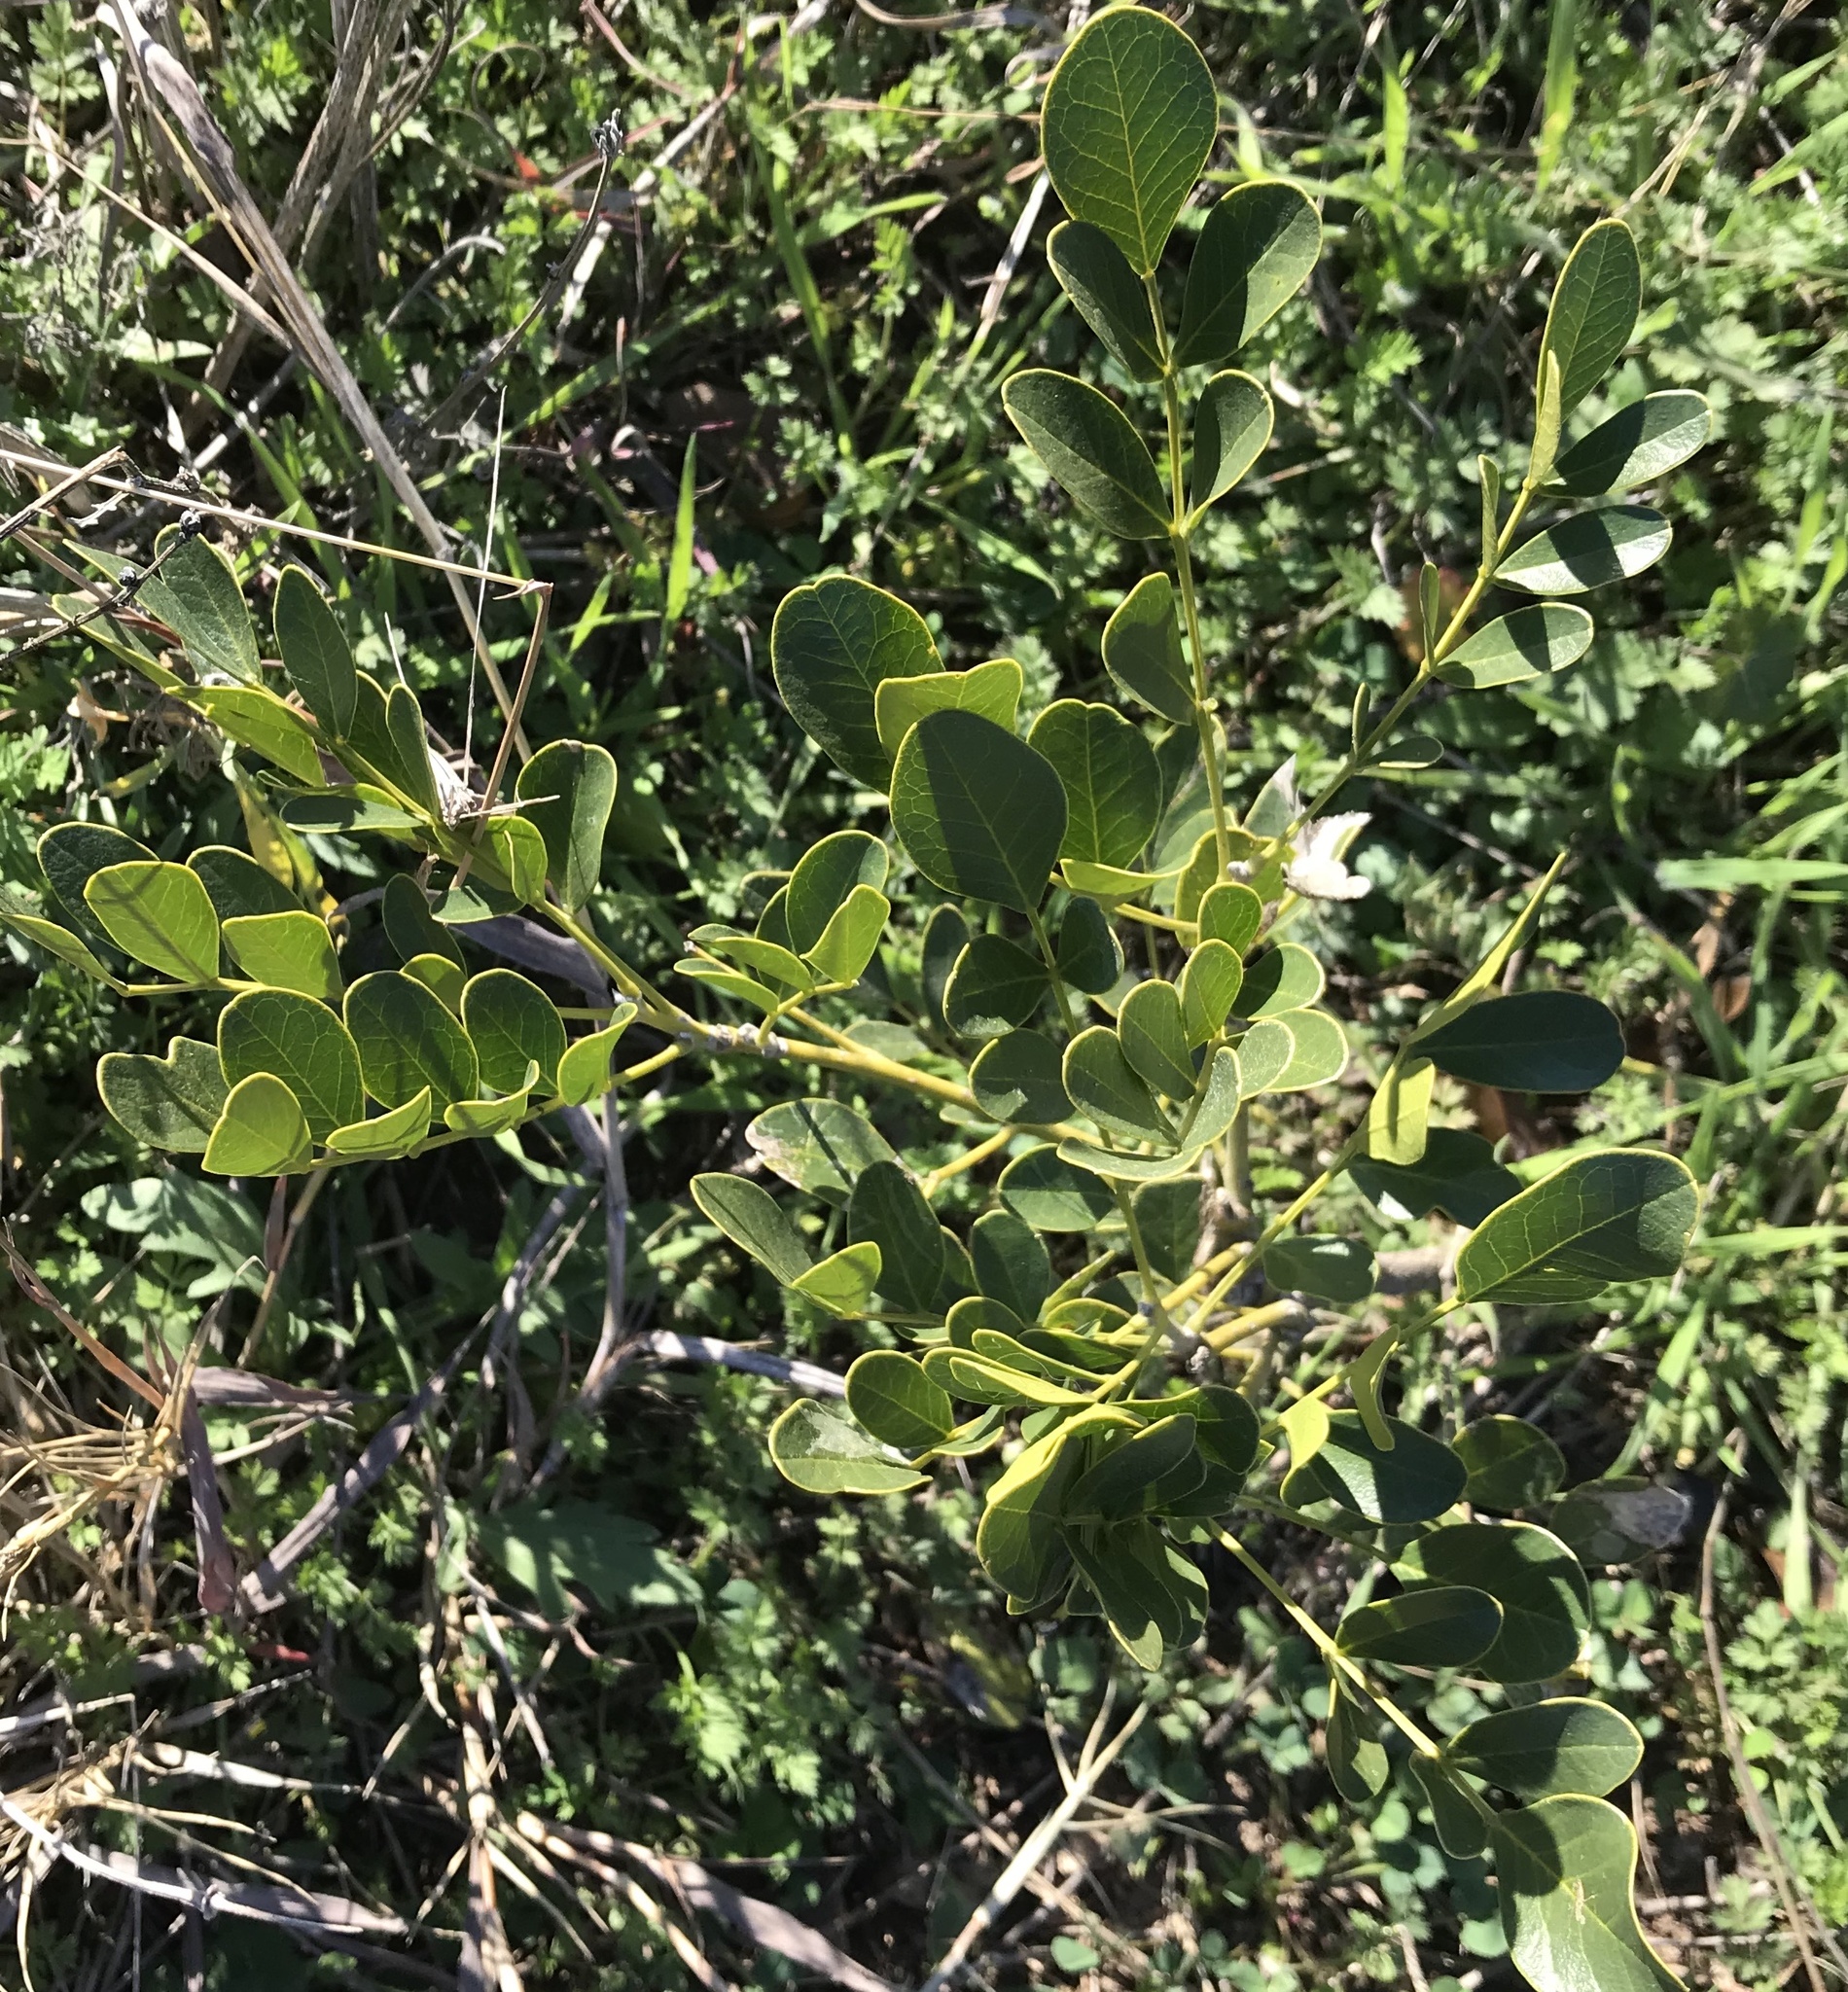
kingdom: Plantae
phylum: Tracheophyta
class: Magnoliopsida
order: Fabales
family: Fabaceae
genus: Dermatophyllum
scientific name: Dermatophyllum secundiflorum
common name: Texas-mountain-laurel
